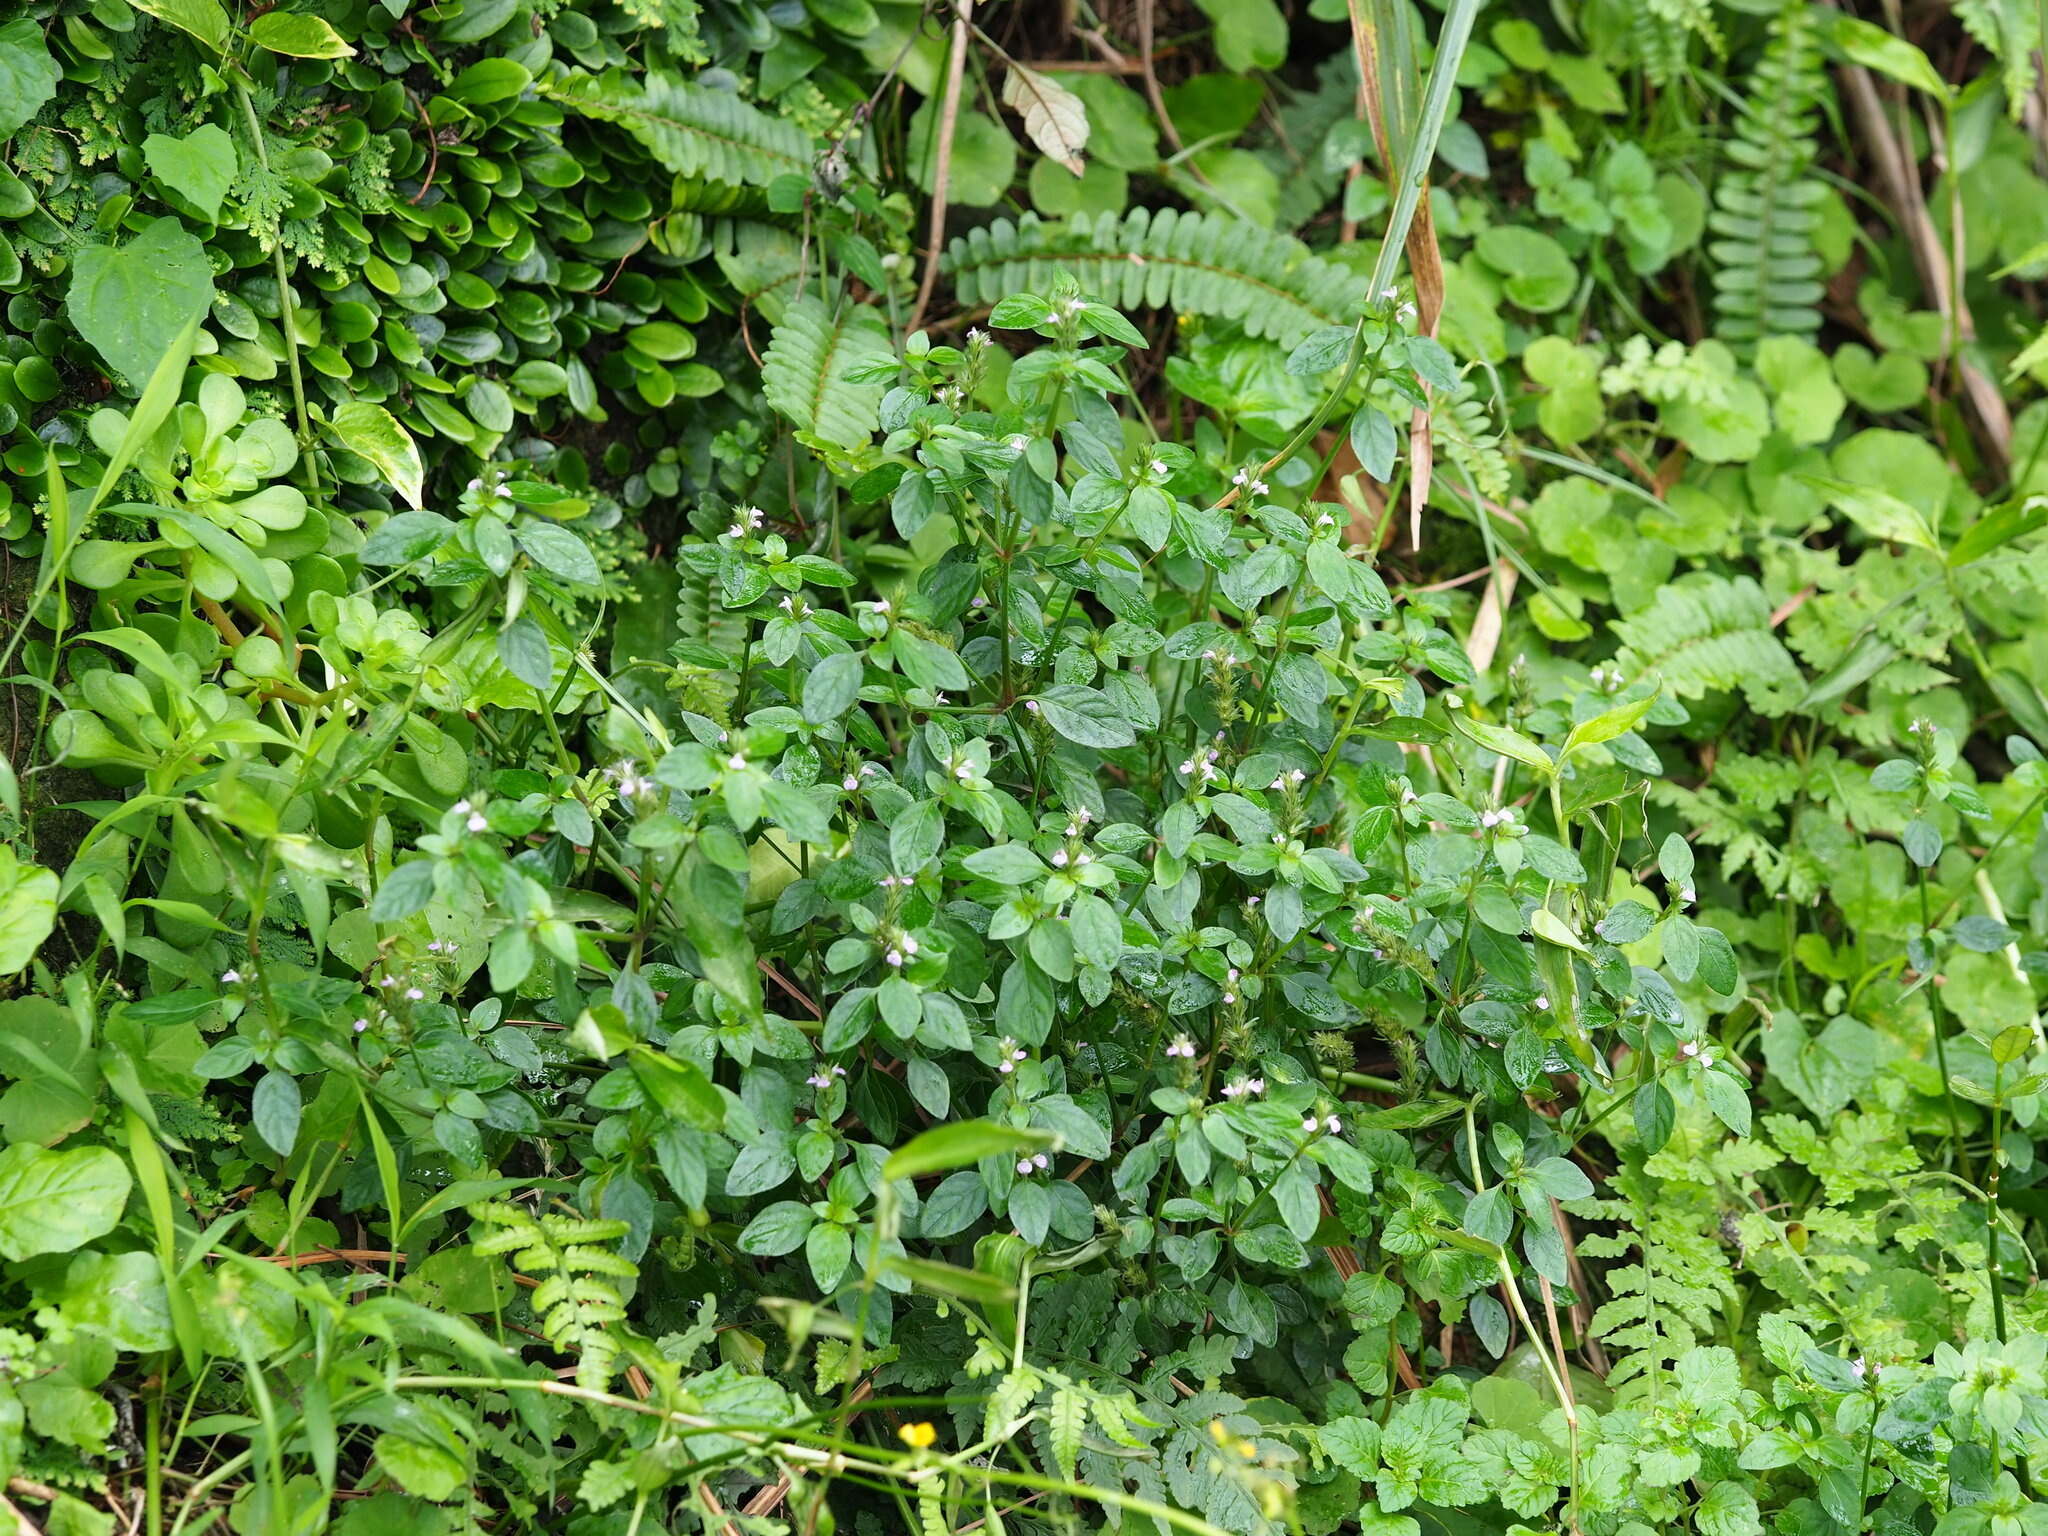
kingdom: Plantae
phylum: Tracheophyta
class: Magnoliopsida
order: Lamiales
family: Acanthaceae
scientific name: Acanthaceae
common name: Acanthaceae
